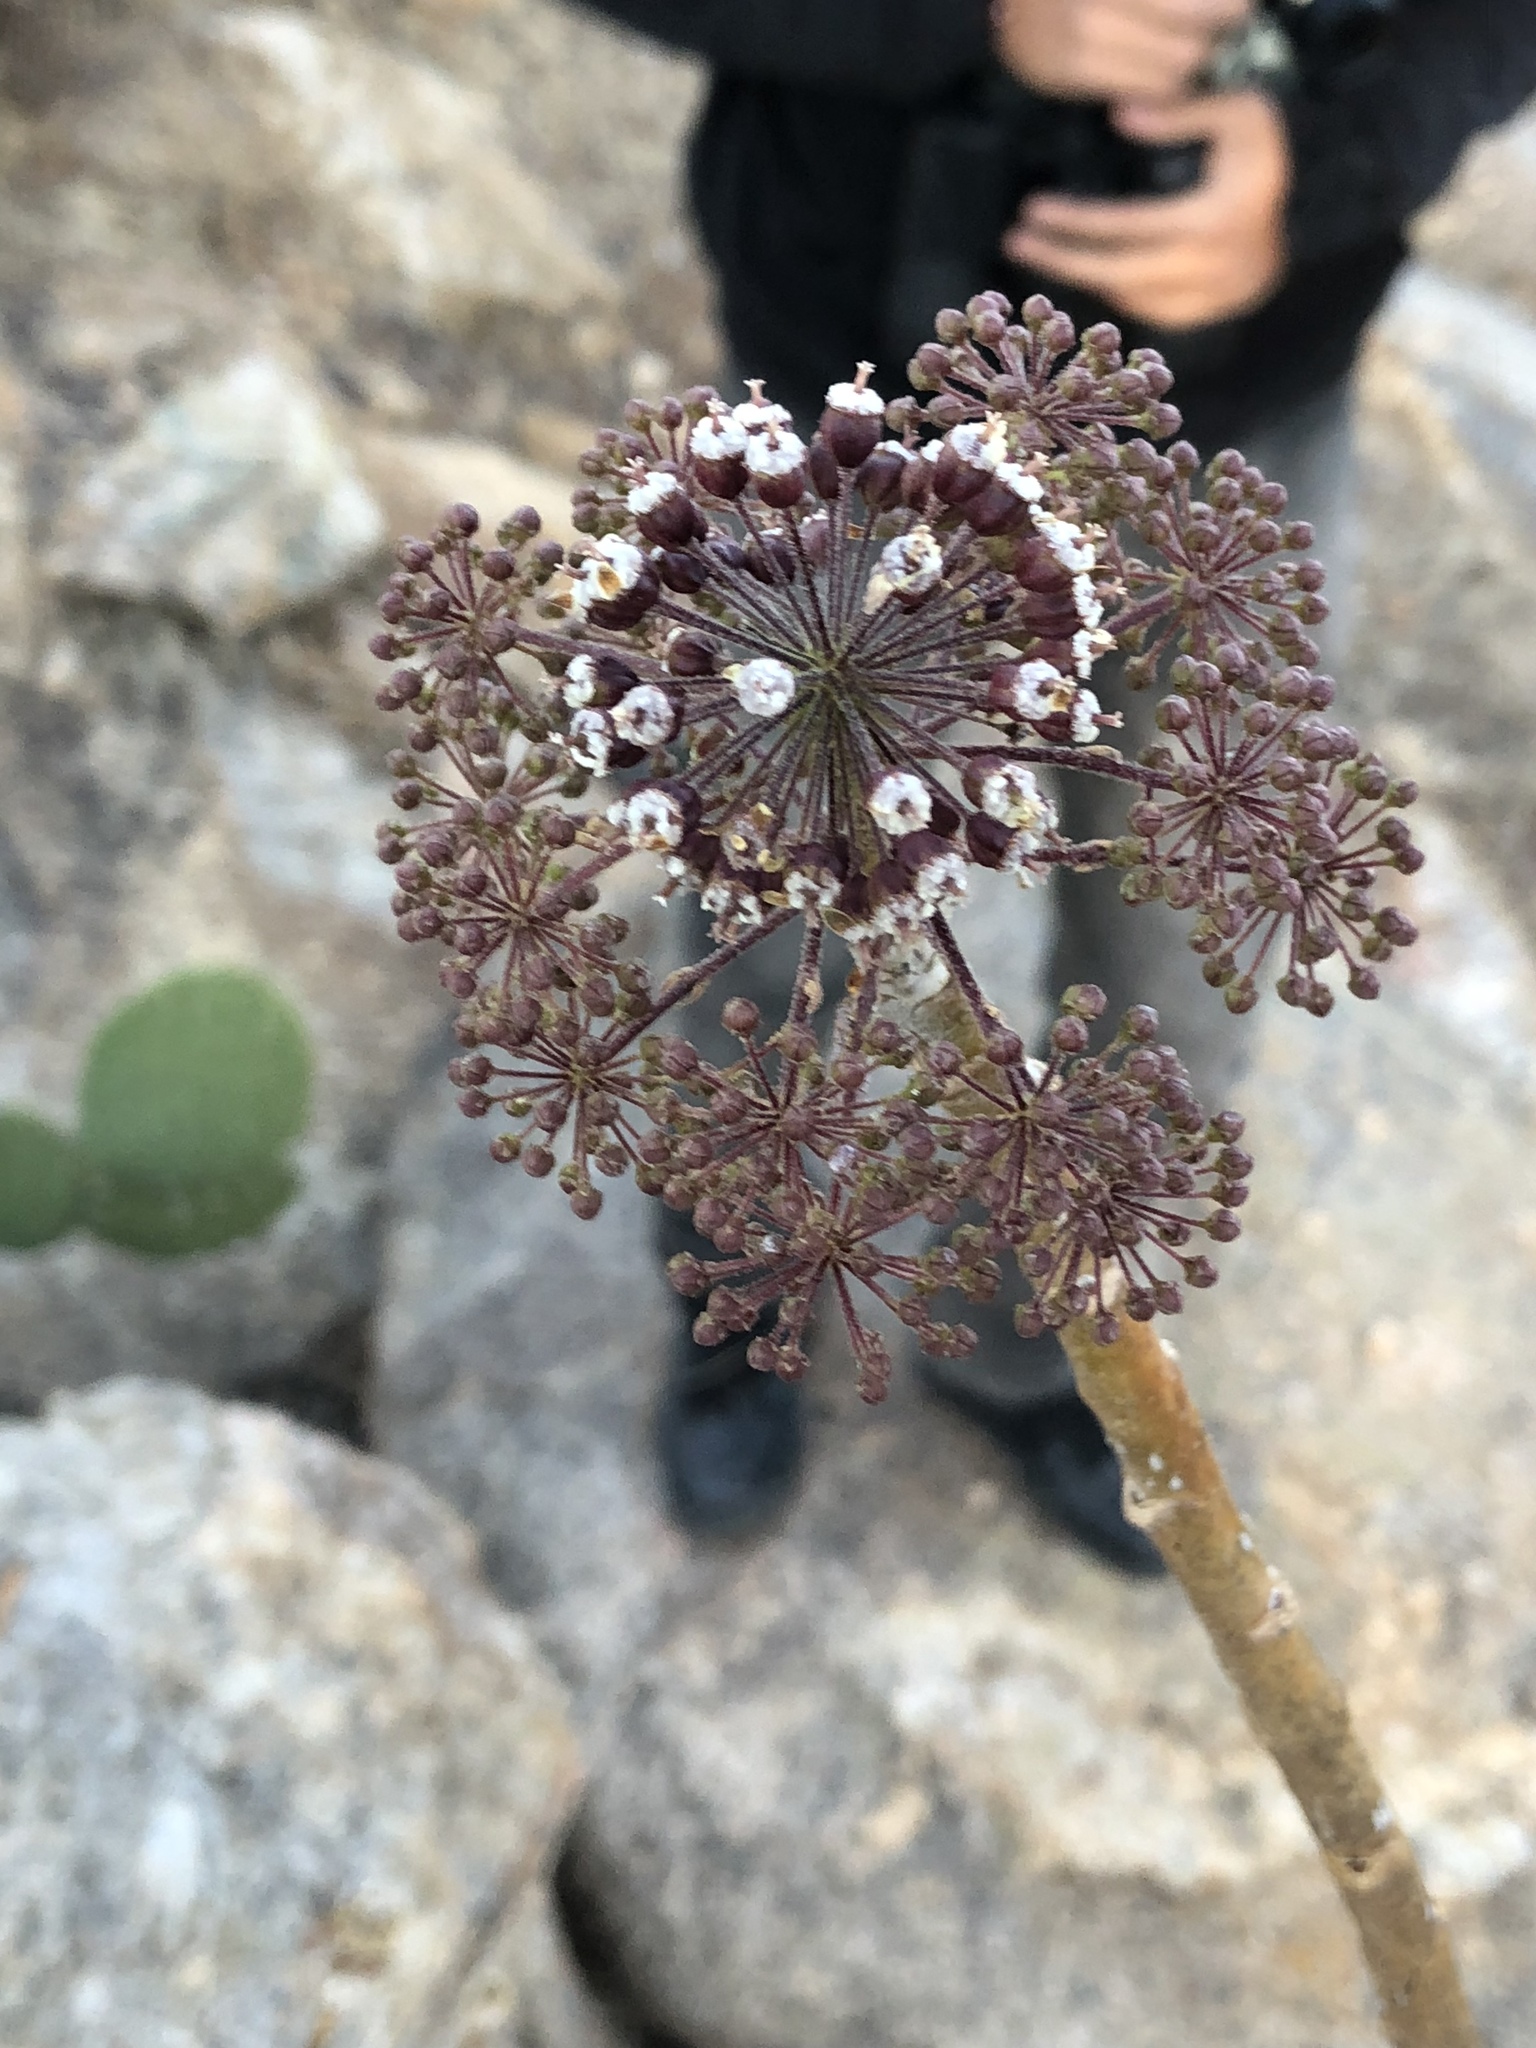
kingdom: Plantae
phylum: Tracheophyta
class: Magnoliopsida
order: Apiales
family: Araliaceae
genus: Aralia
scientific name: Aralia humilis
